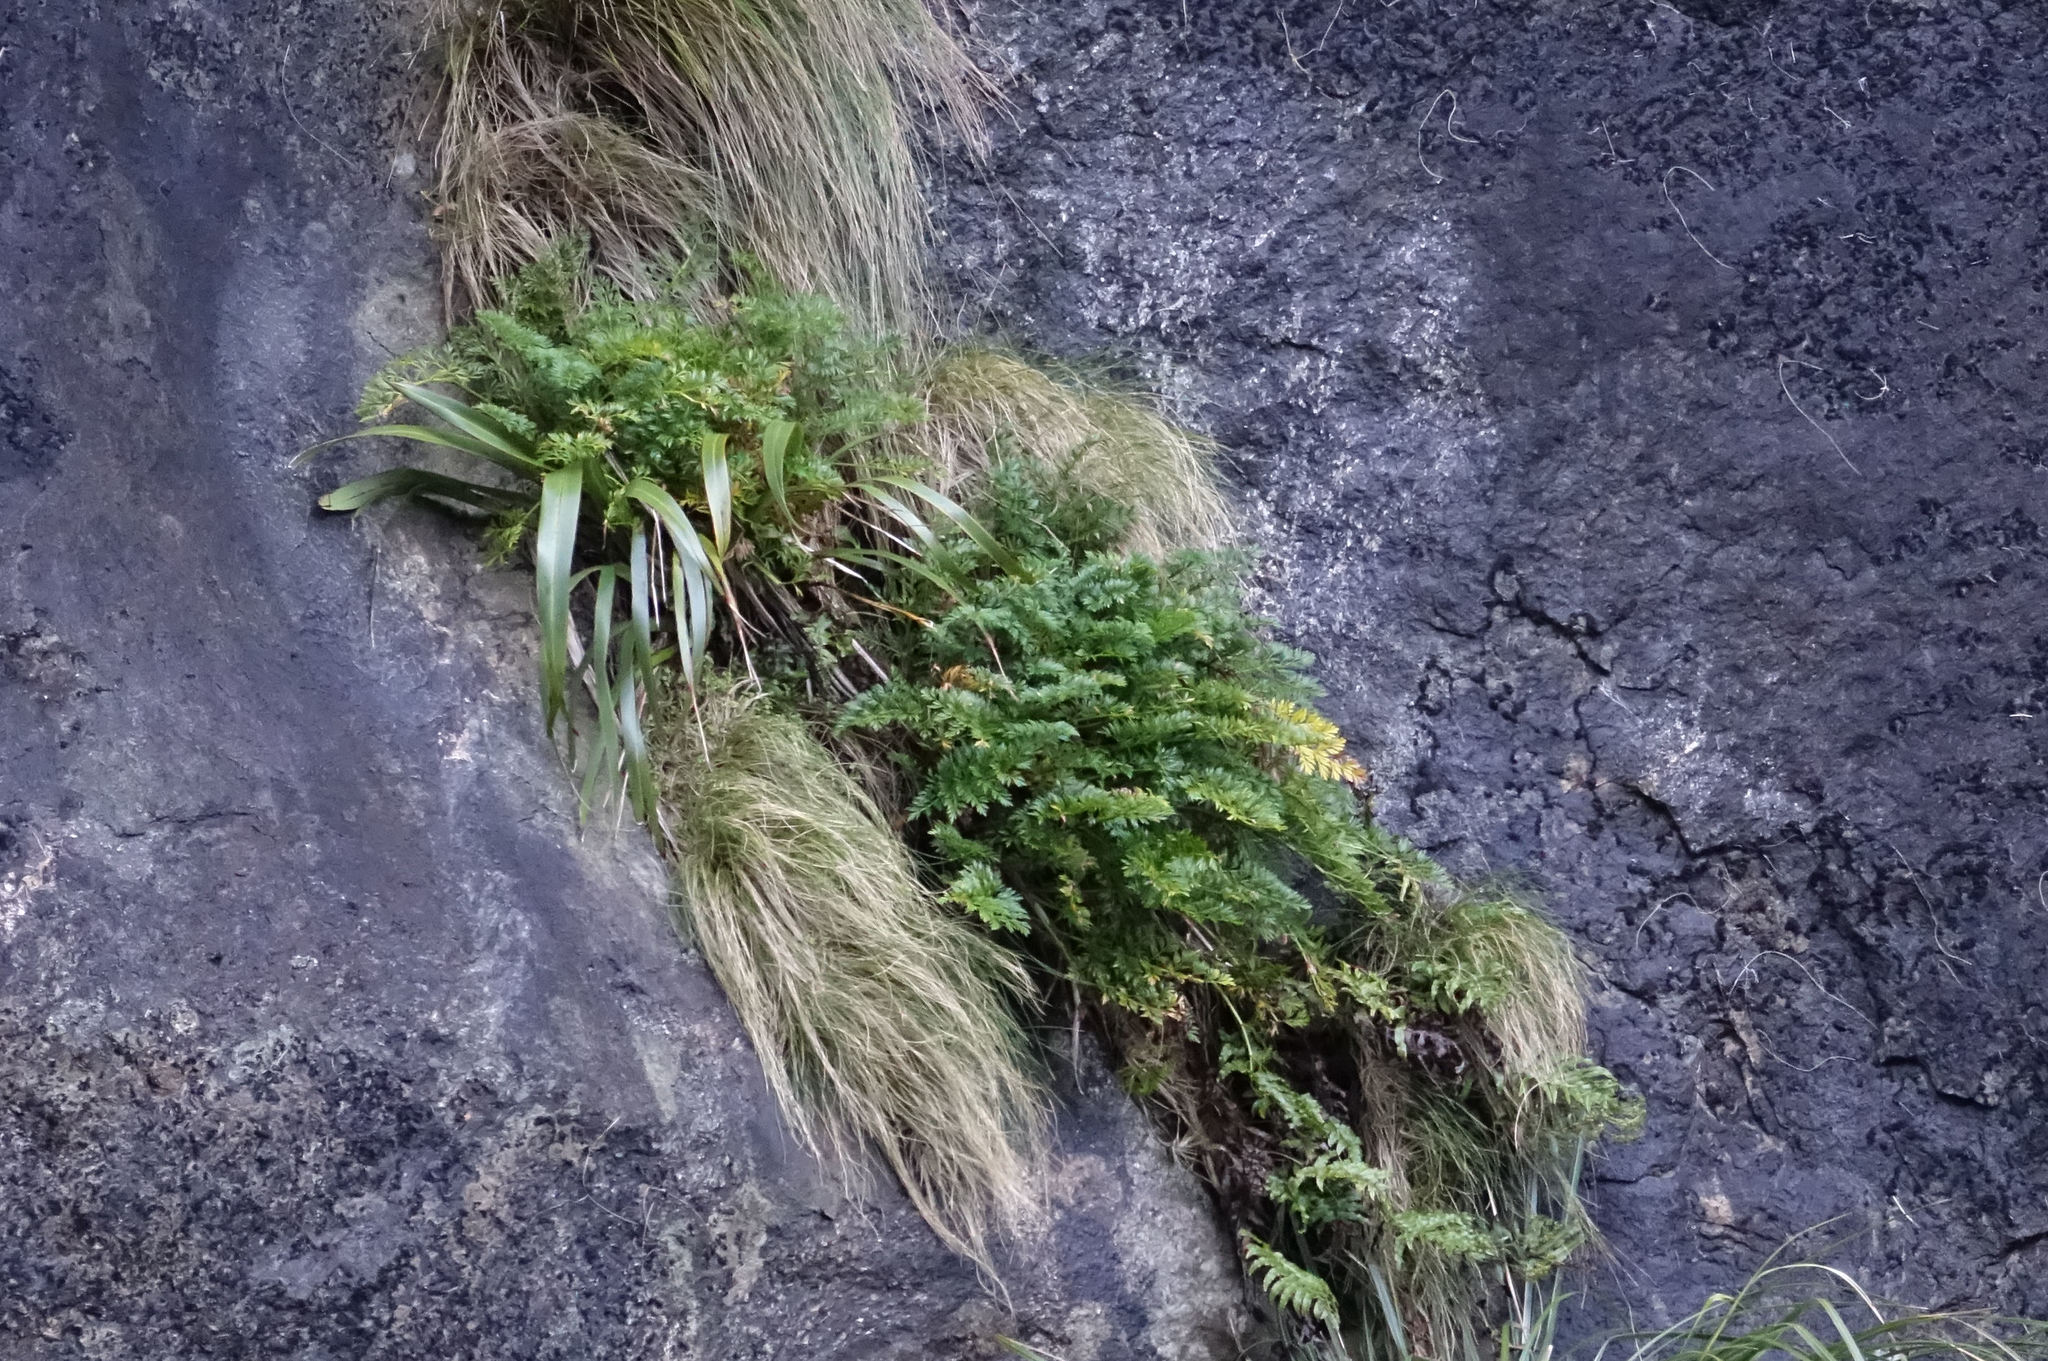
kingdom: Plantae
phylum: Tracheophyta
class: Magnoliopsida
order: Apiales
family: Apiaceae
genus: Anisotome
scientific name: Anisotome lyallii
